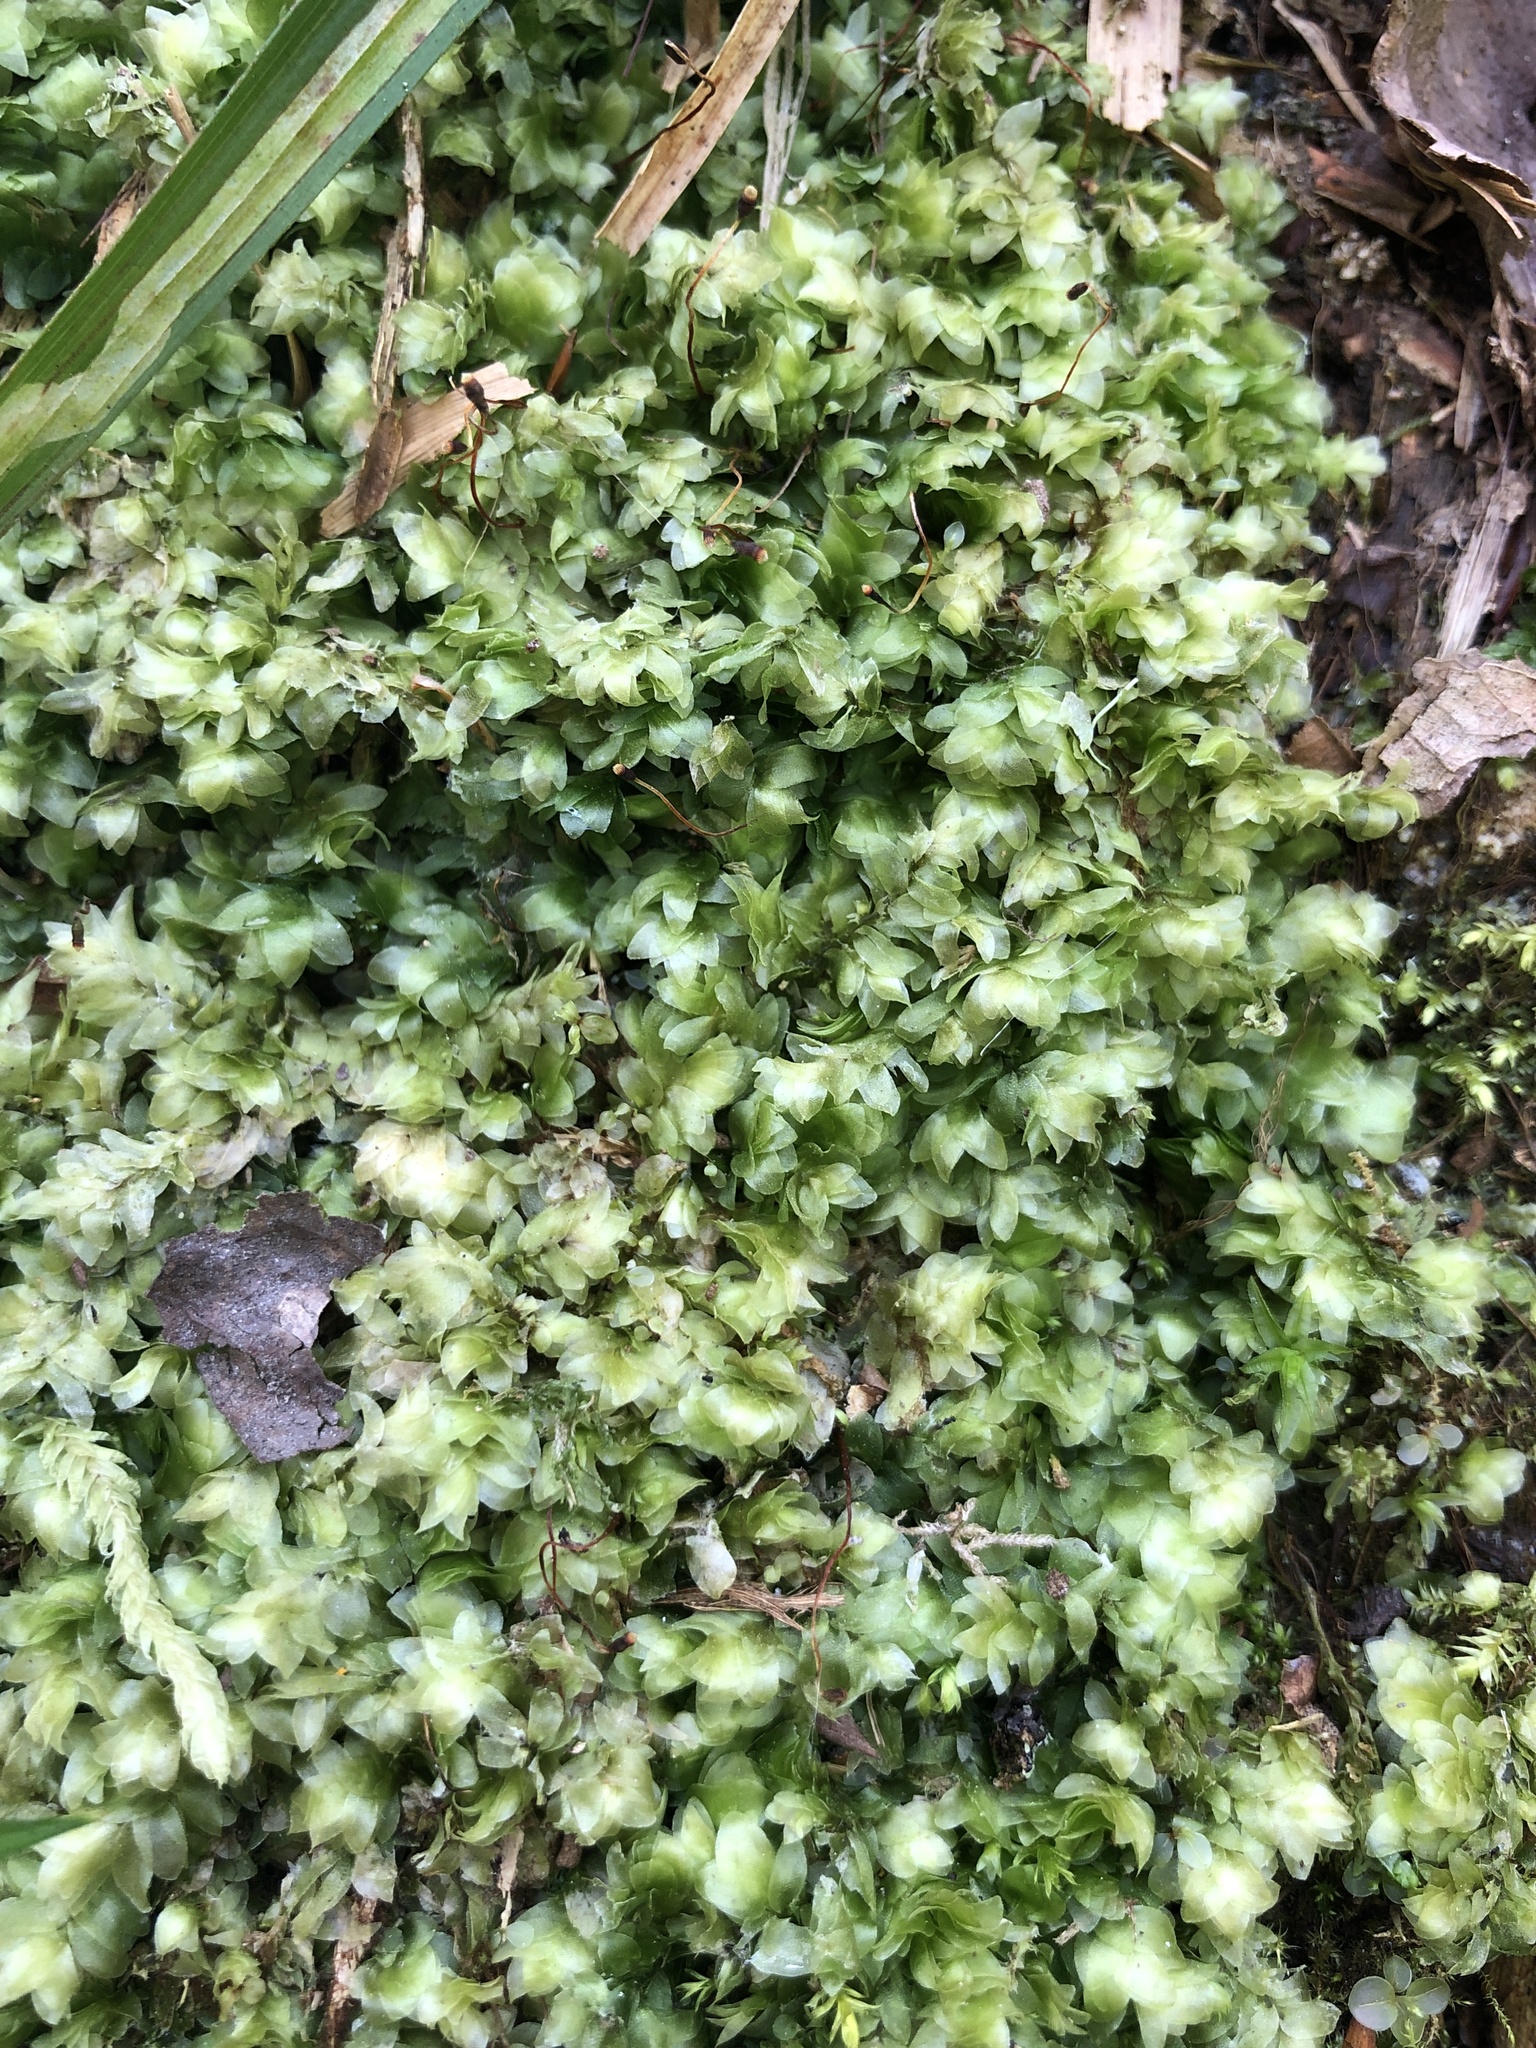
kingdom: Plantae
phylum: Bryophyta
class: Bryopsida
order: Hookeriales
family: Hookeriaceae
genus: Hookeria
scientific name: Hookeria lucens
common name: Shining hookeria
